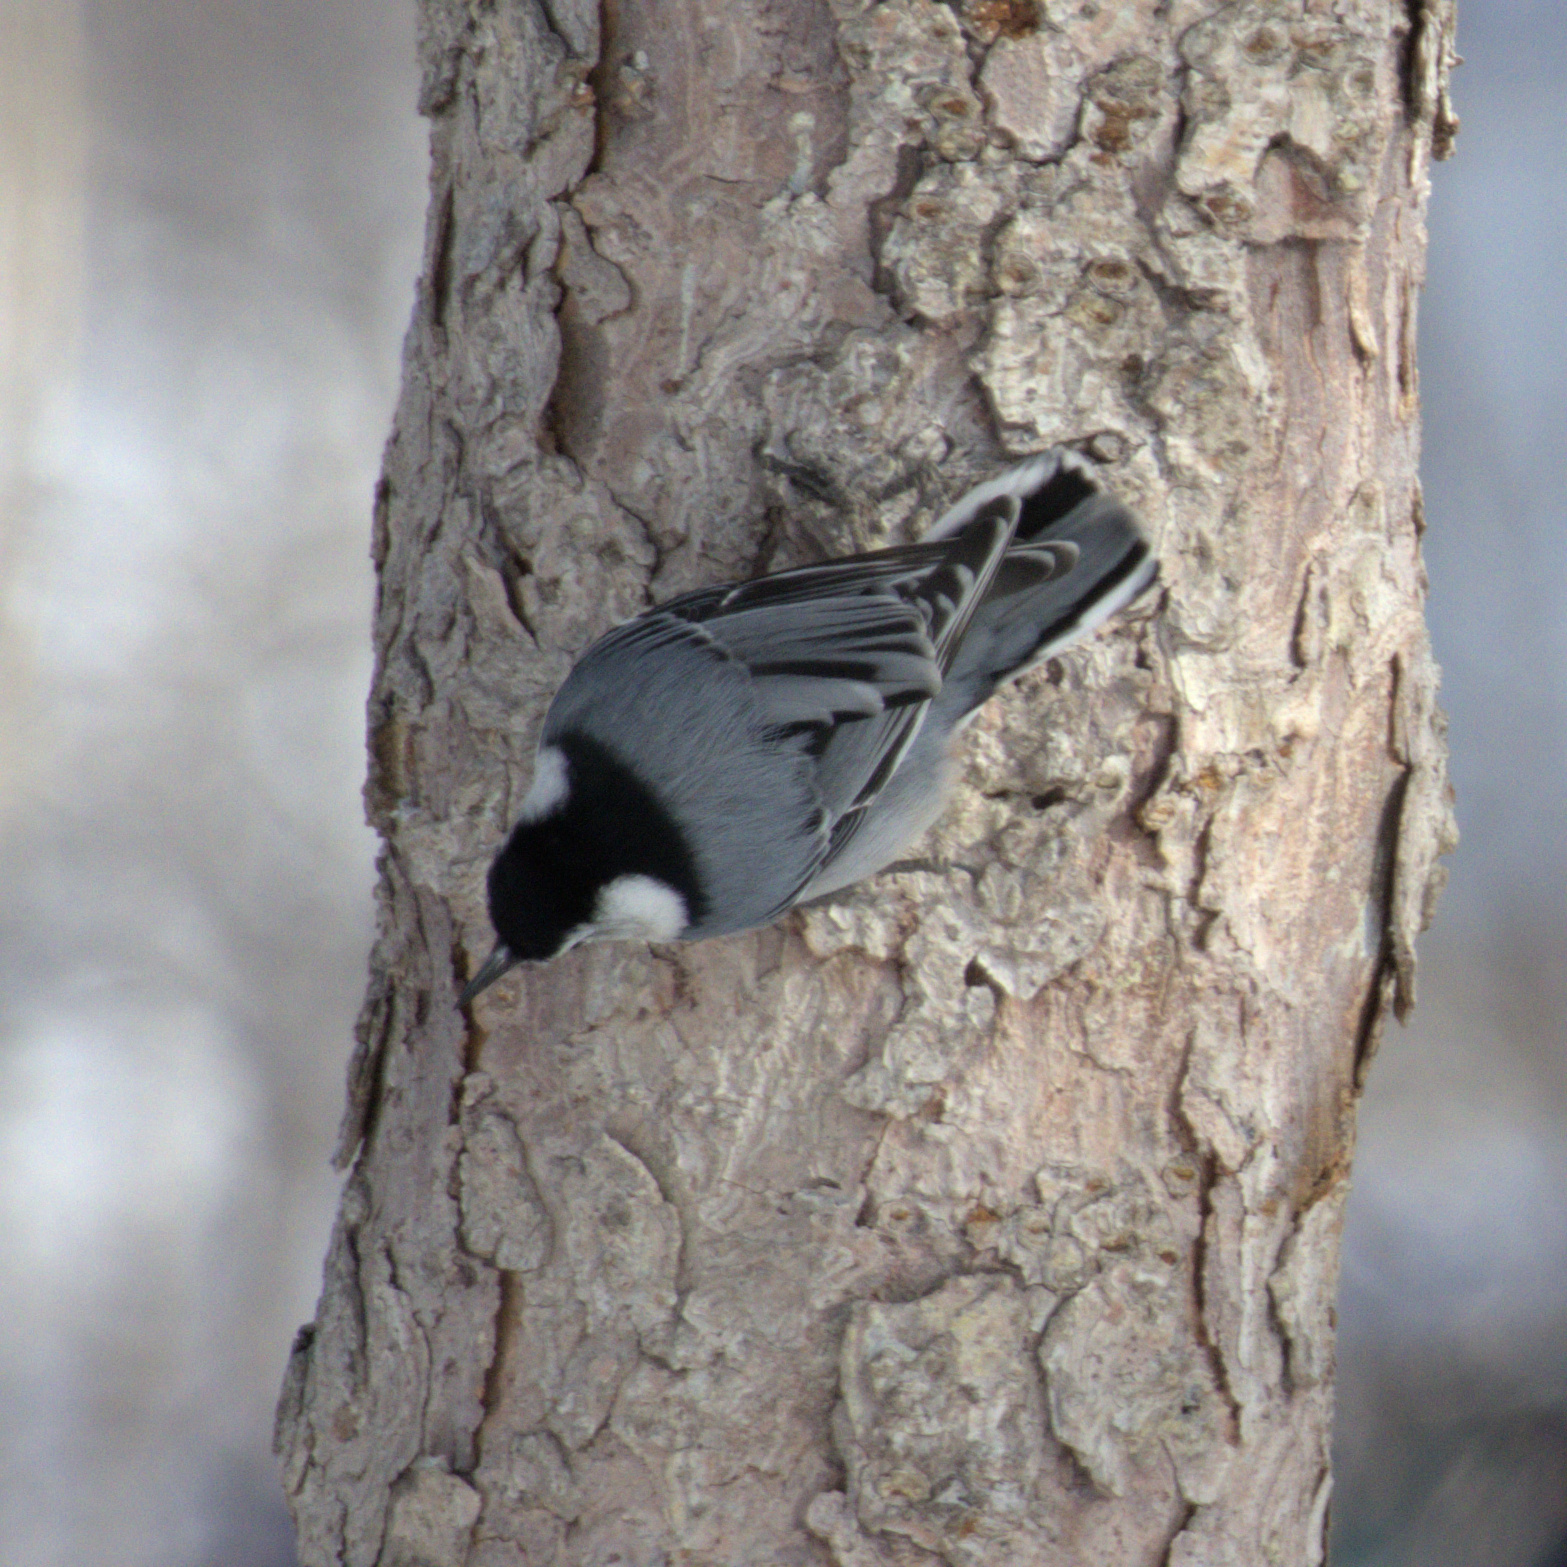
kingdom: Animalia
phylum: Chordata
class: Aves
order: Passeriformes
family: Sittidae
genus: Sitta
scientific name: Sitta carolinensis
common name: White-breasted nuthatch
